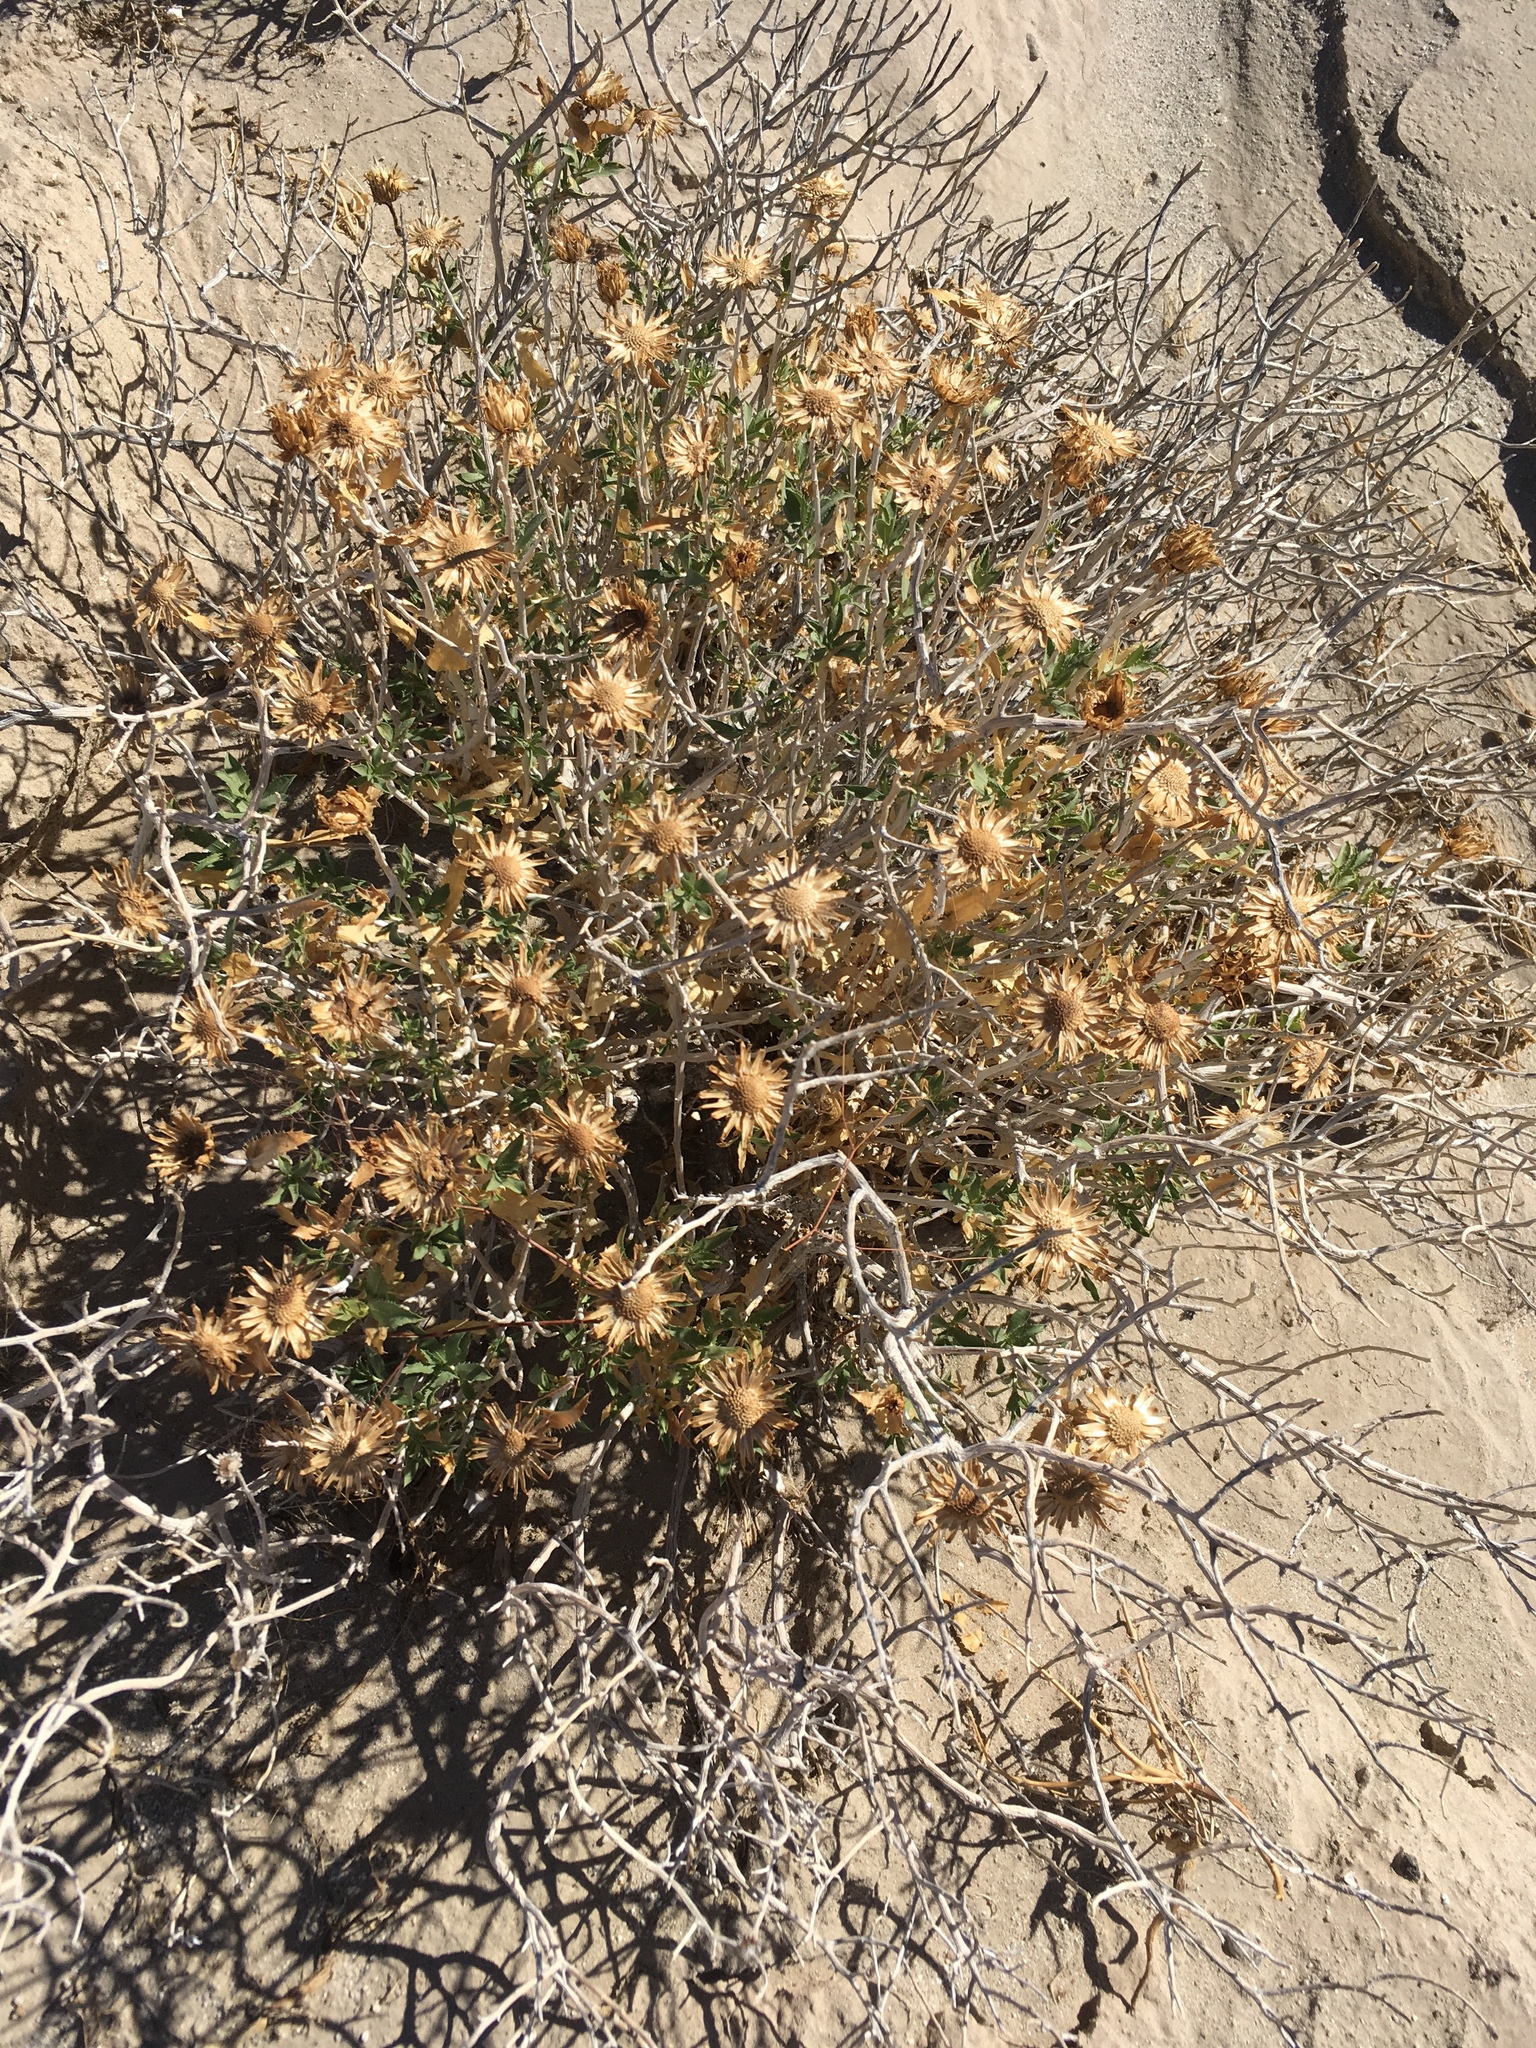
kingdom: Plantae
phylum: Tracheophyta
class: Magnoliopsida
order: Asterales
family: Asteraceae
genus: Xylorhiza
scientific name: Xylorhiza orcuttii
